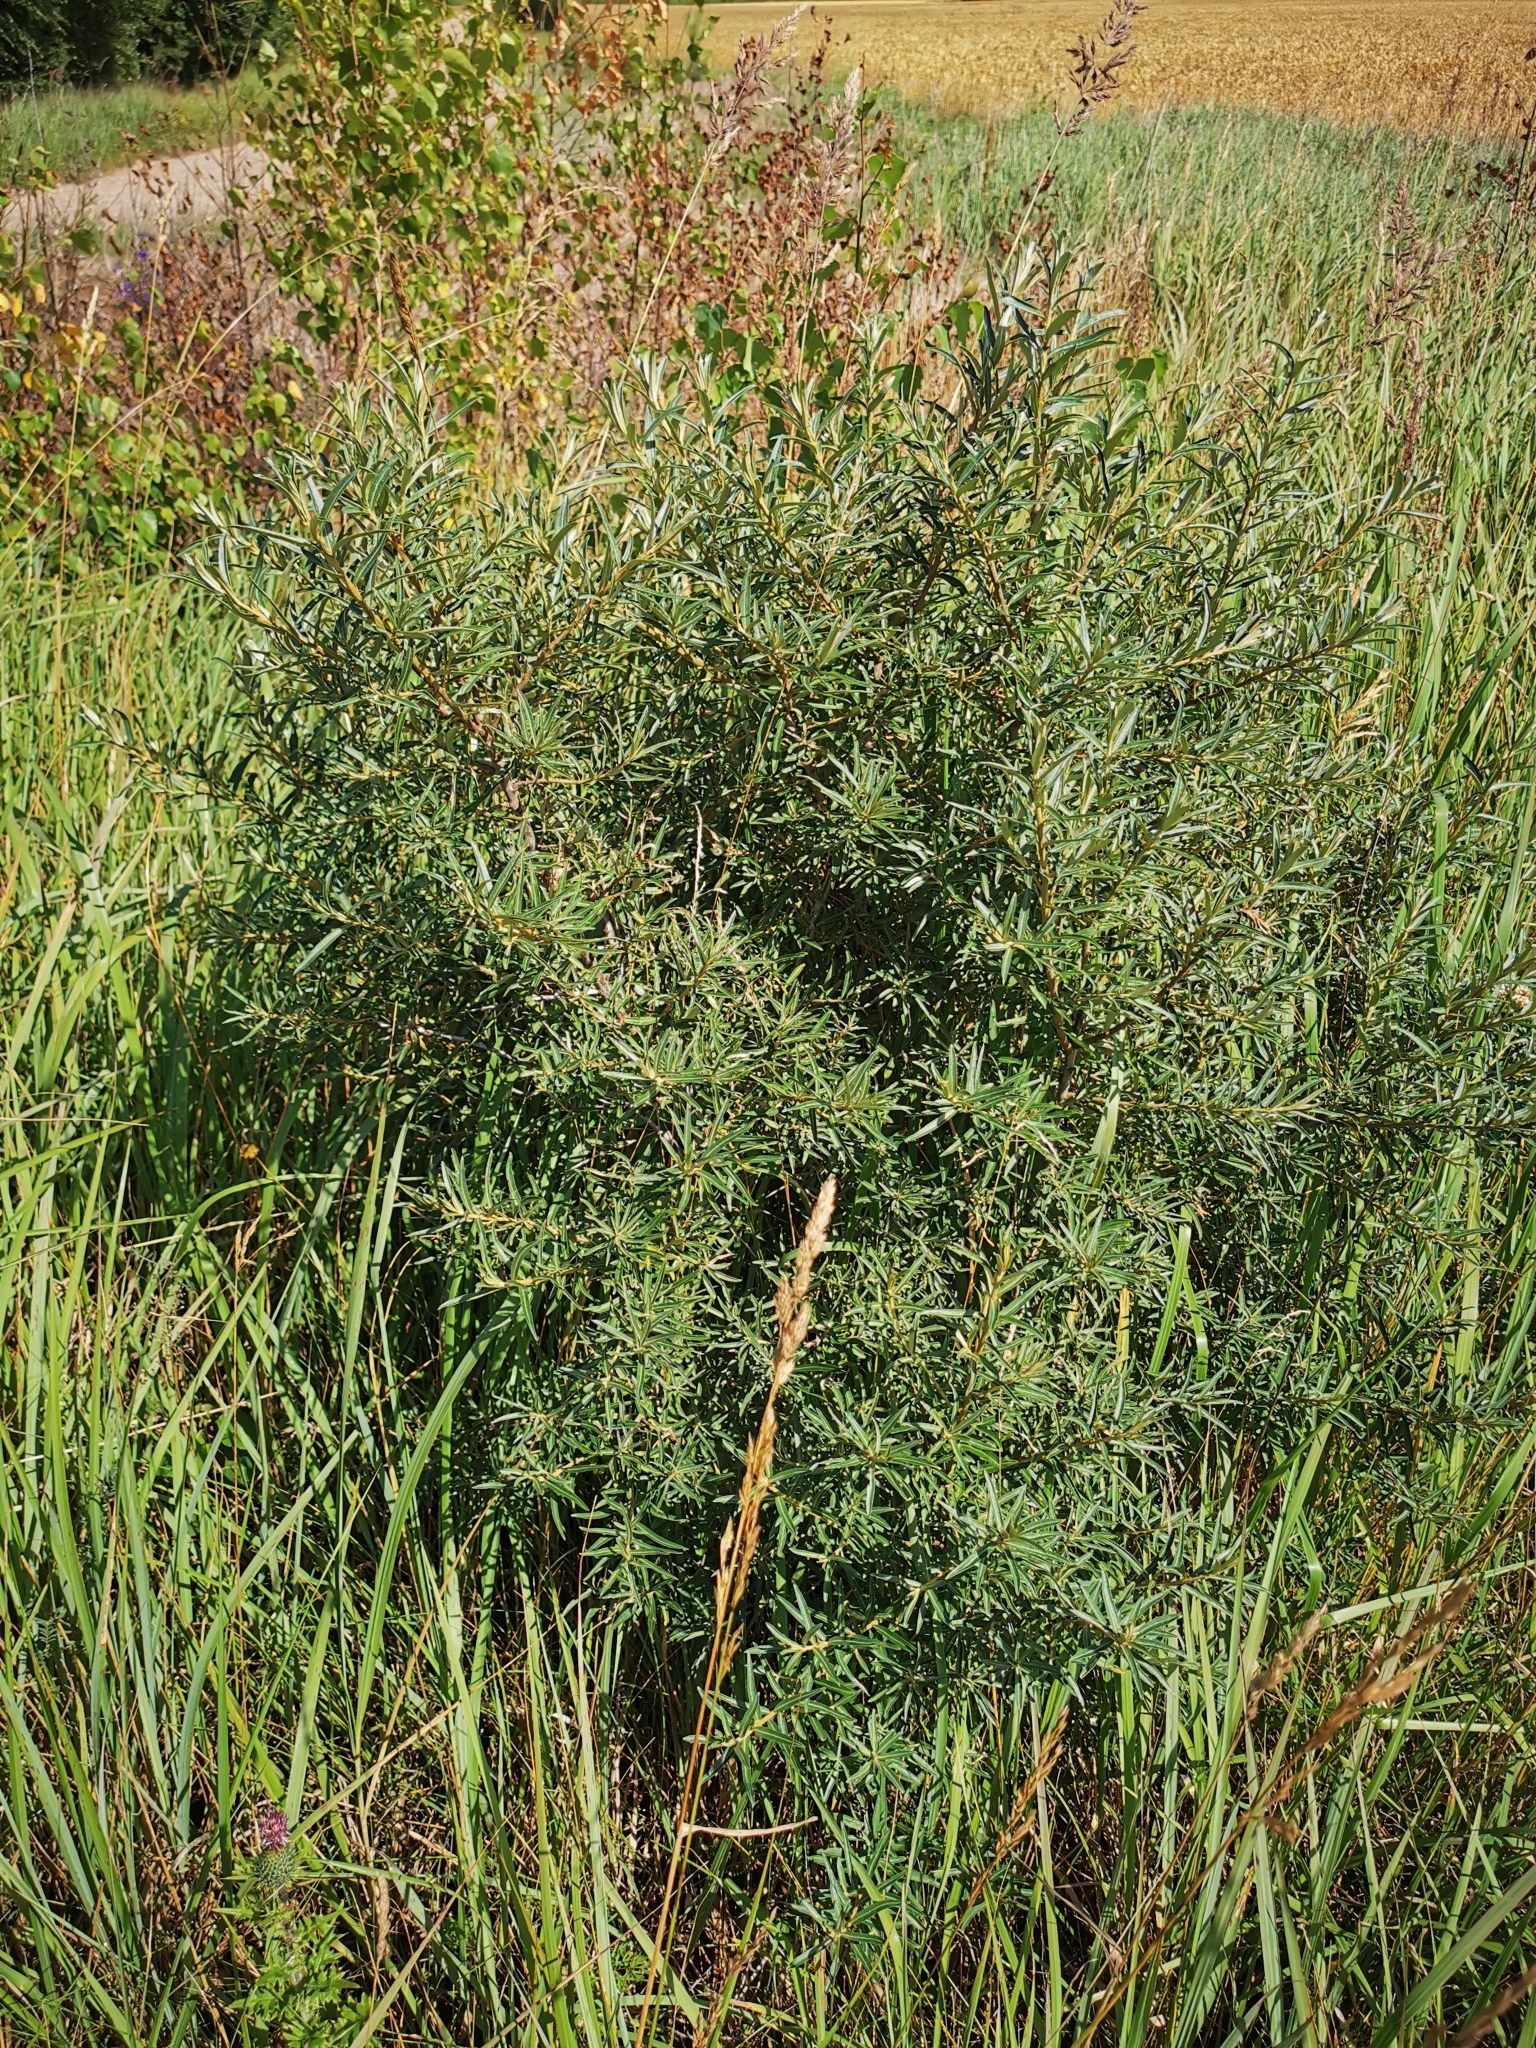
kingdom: Plantae
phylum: Tracheophyta
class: Magnoliopsida
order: Rosales
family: Elaeagnaceae
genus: Hippophae
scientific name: Hippophae rhamnoides
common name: Sea-buckthorn
